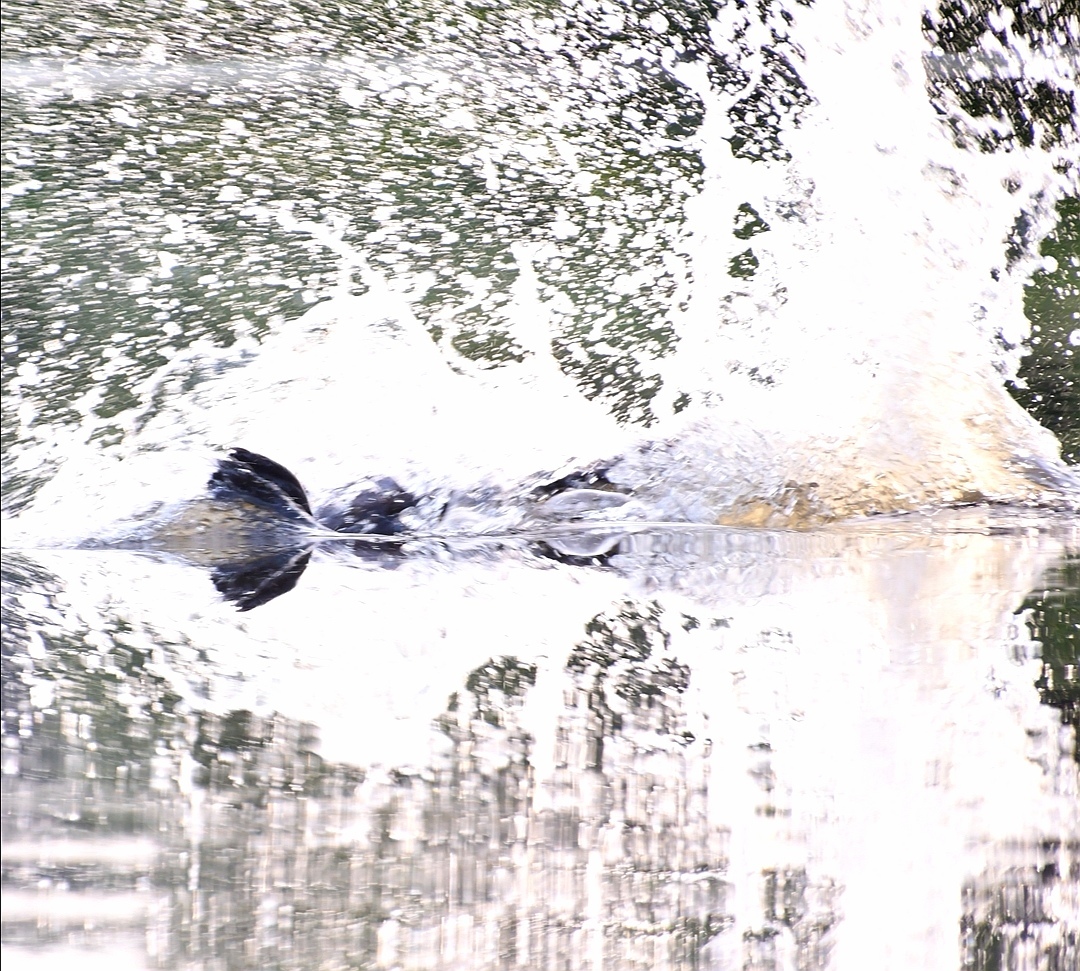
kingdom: Animalia
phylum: Chordata
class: Mammalia
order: Rodentia
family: Castoridae
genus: Castor
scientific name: Castor canadensis
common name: American beaver
